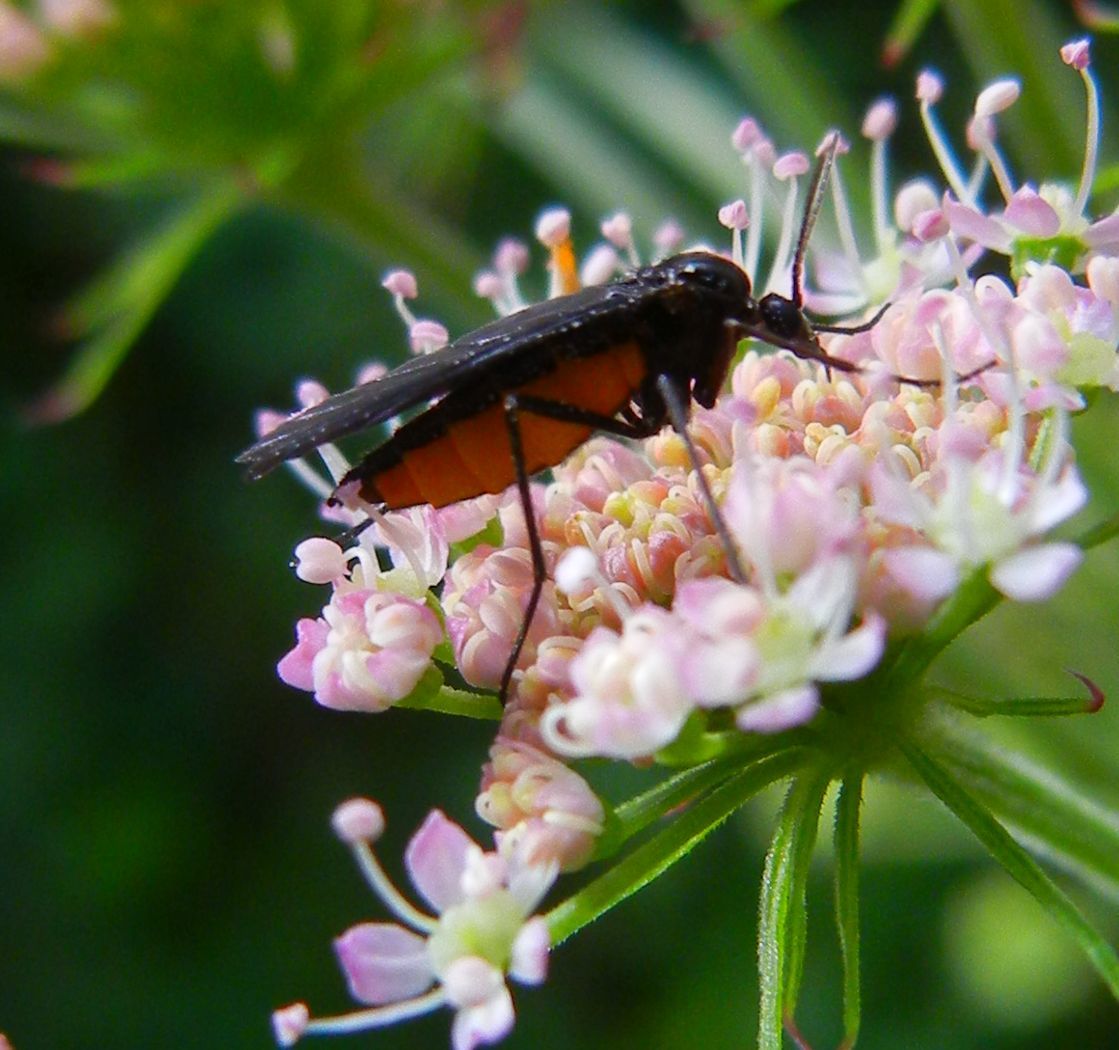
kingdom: Animalia
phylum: Arthropoda
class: Insecta
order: Diptera
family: Sciaridae
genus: Sciara
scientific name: Sciara hemerobioides
